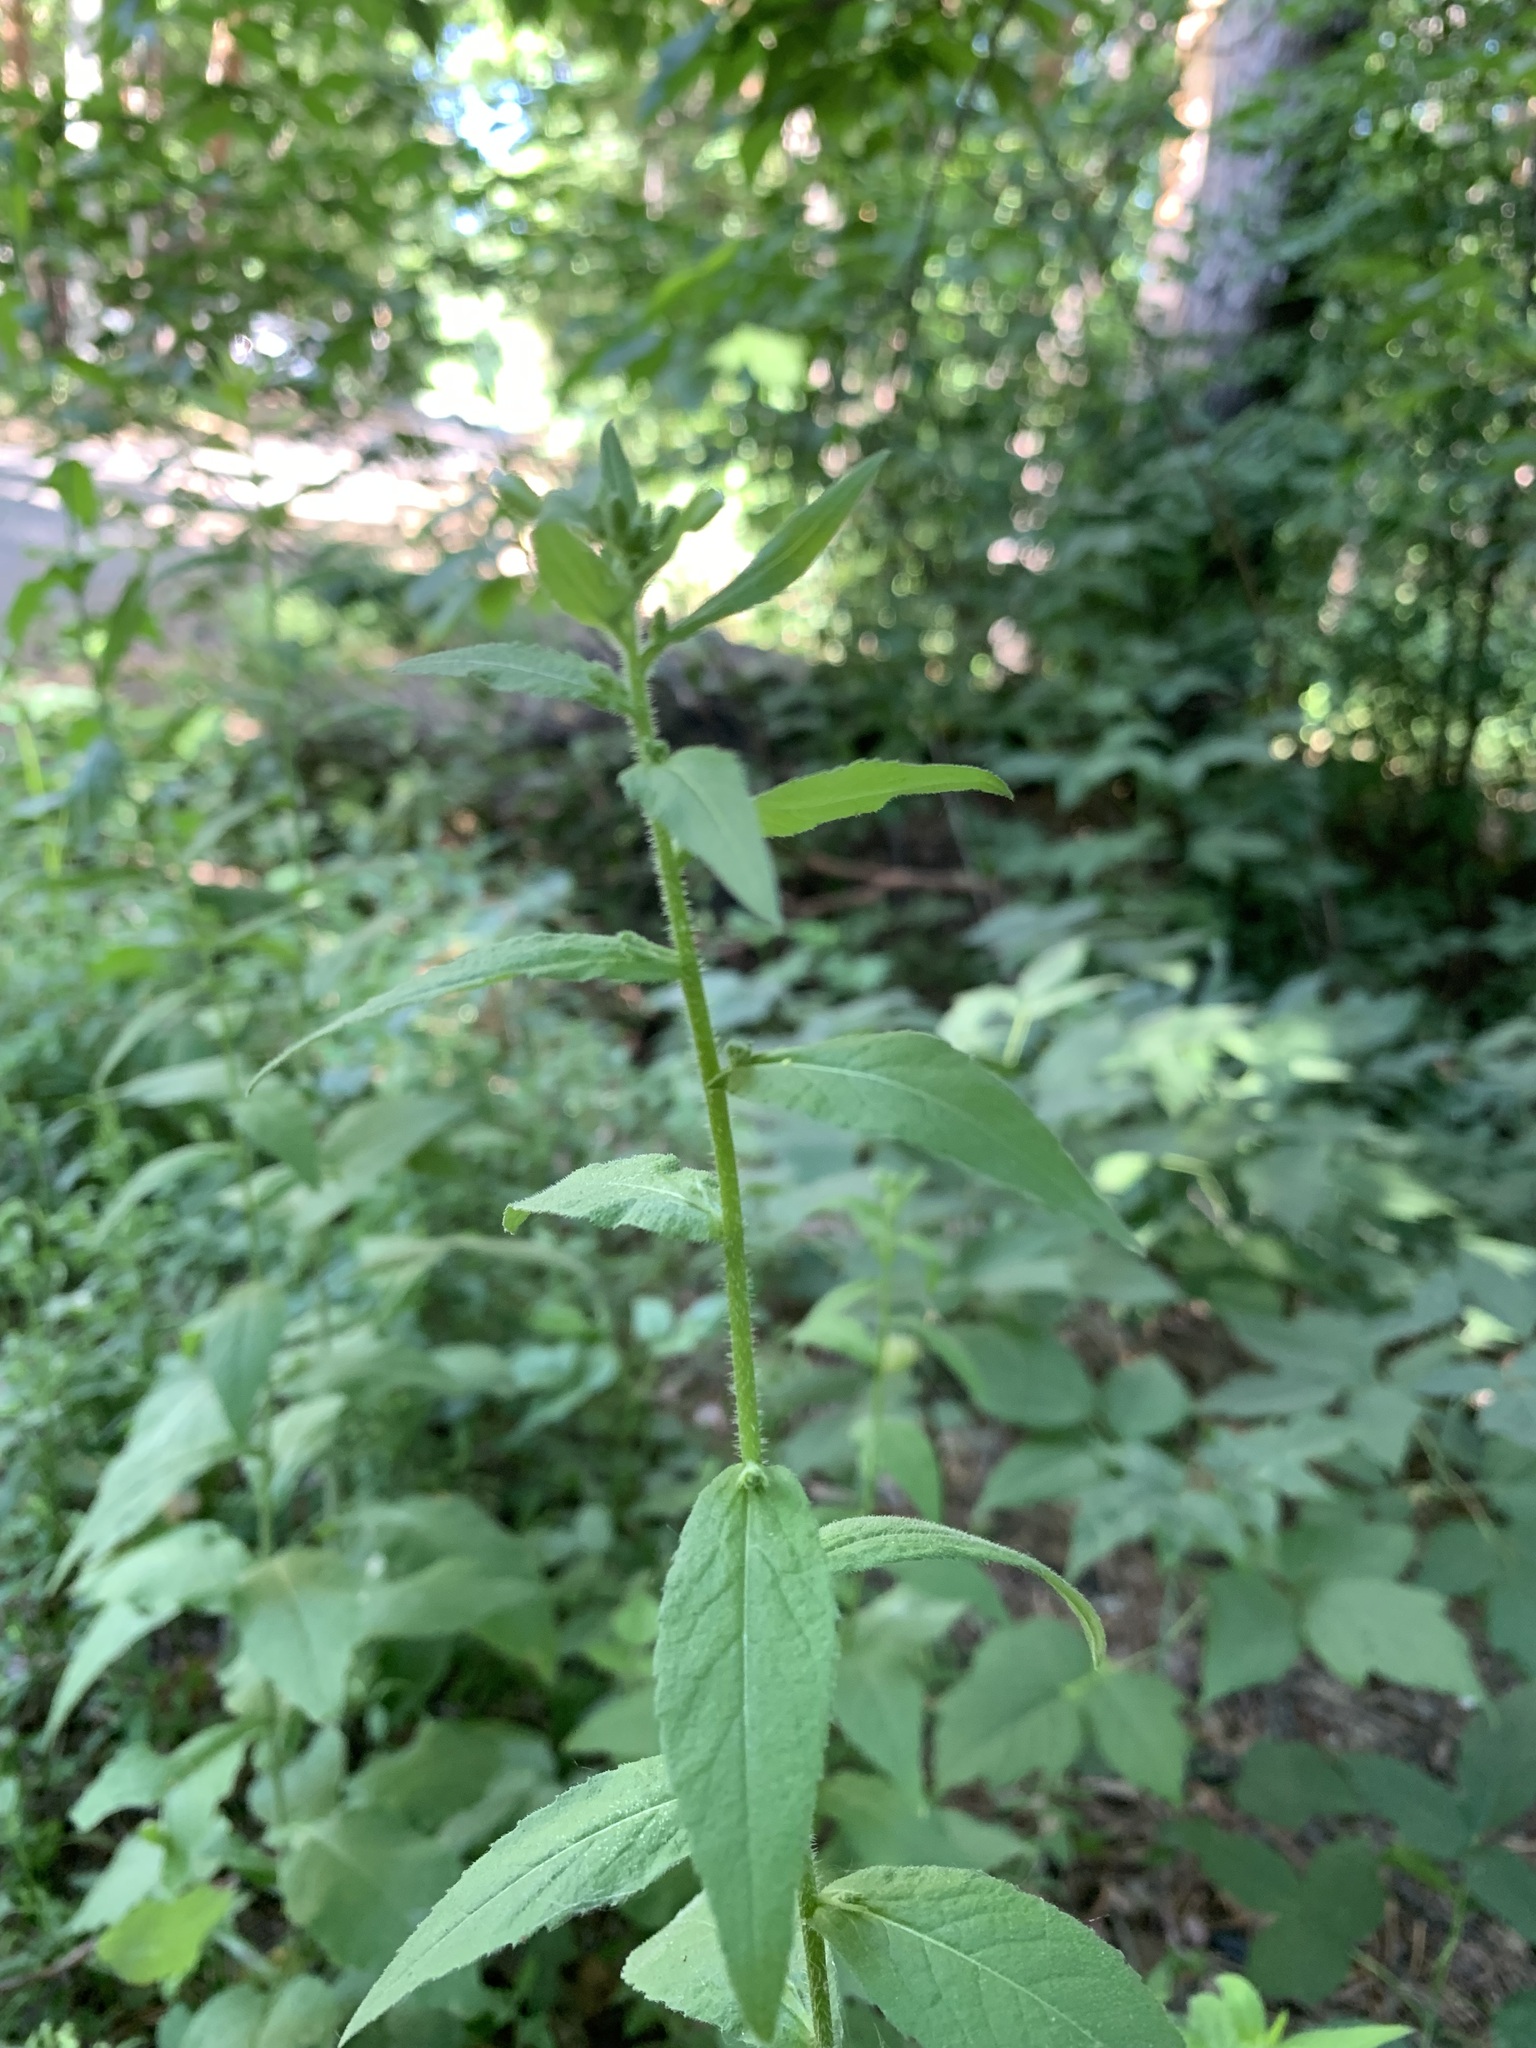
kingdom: Plantae
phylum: Tracheophyta
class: Magnoliopsida
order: Brassicales
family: Brassicaceae
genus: Catolobus
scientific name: Catolobus pendulus
